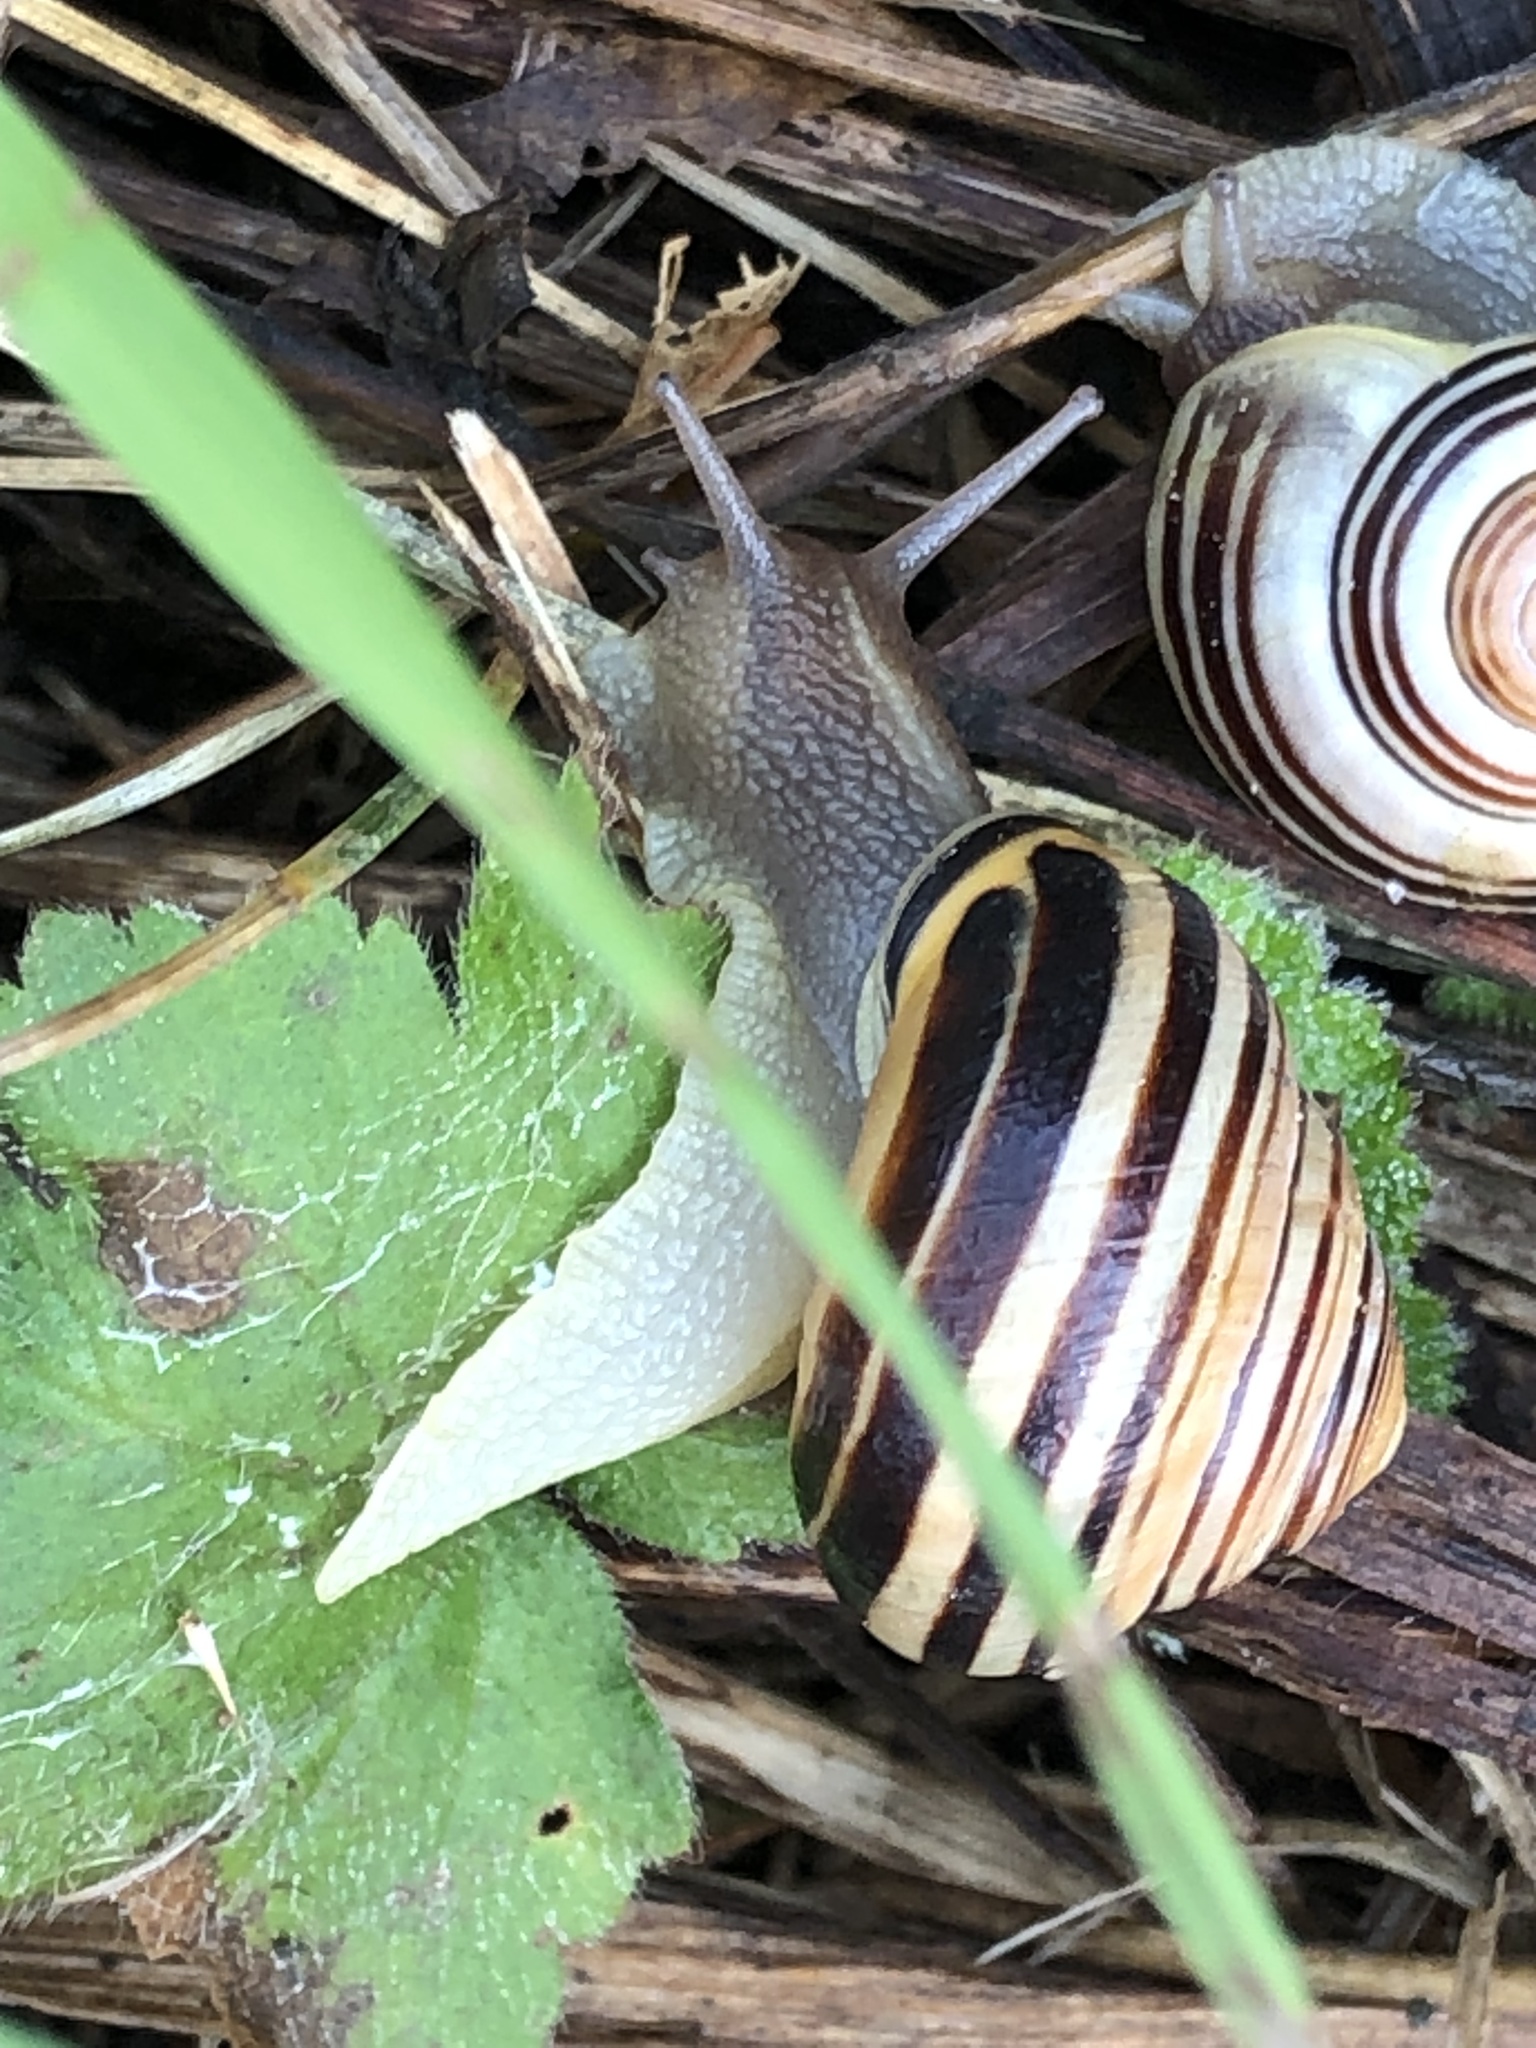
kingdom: Animalia
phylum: Mollusca
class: Gastropoda
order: Stylommatophora
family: Helicidae
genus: Cepaea
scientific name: Cepaea nemoralis
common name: Grovesnail
